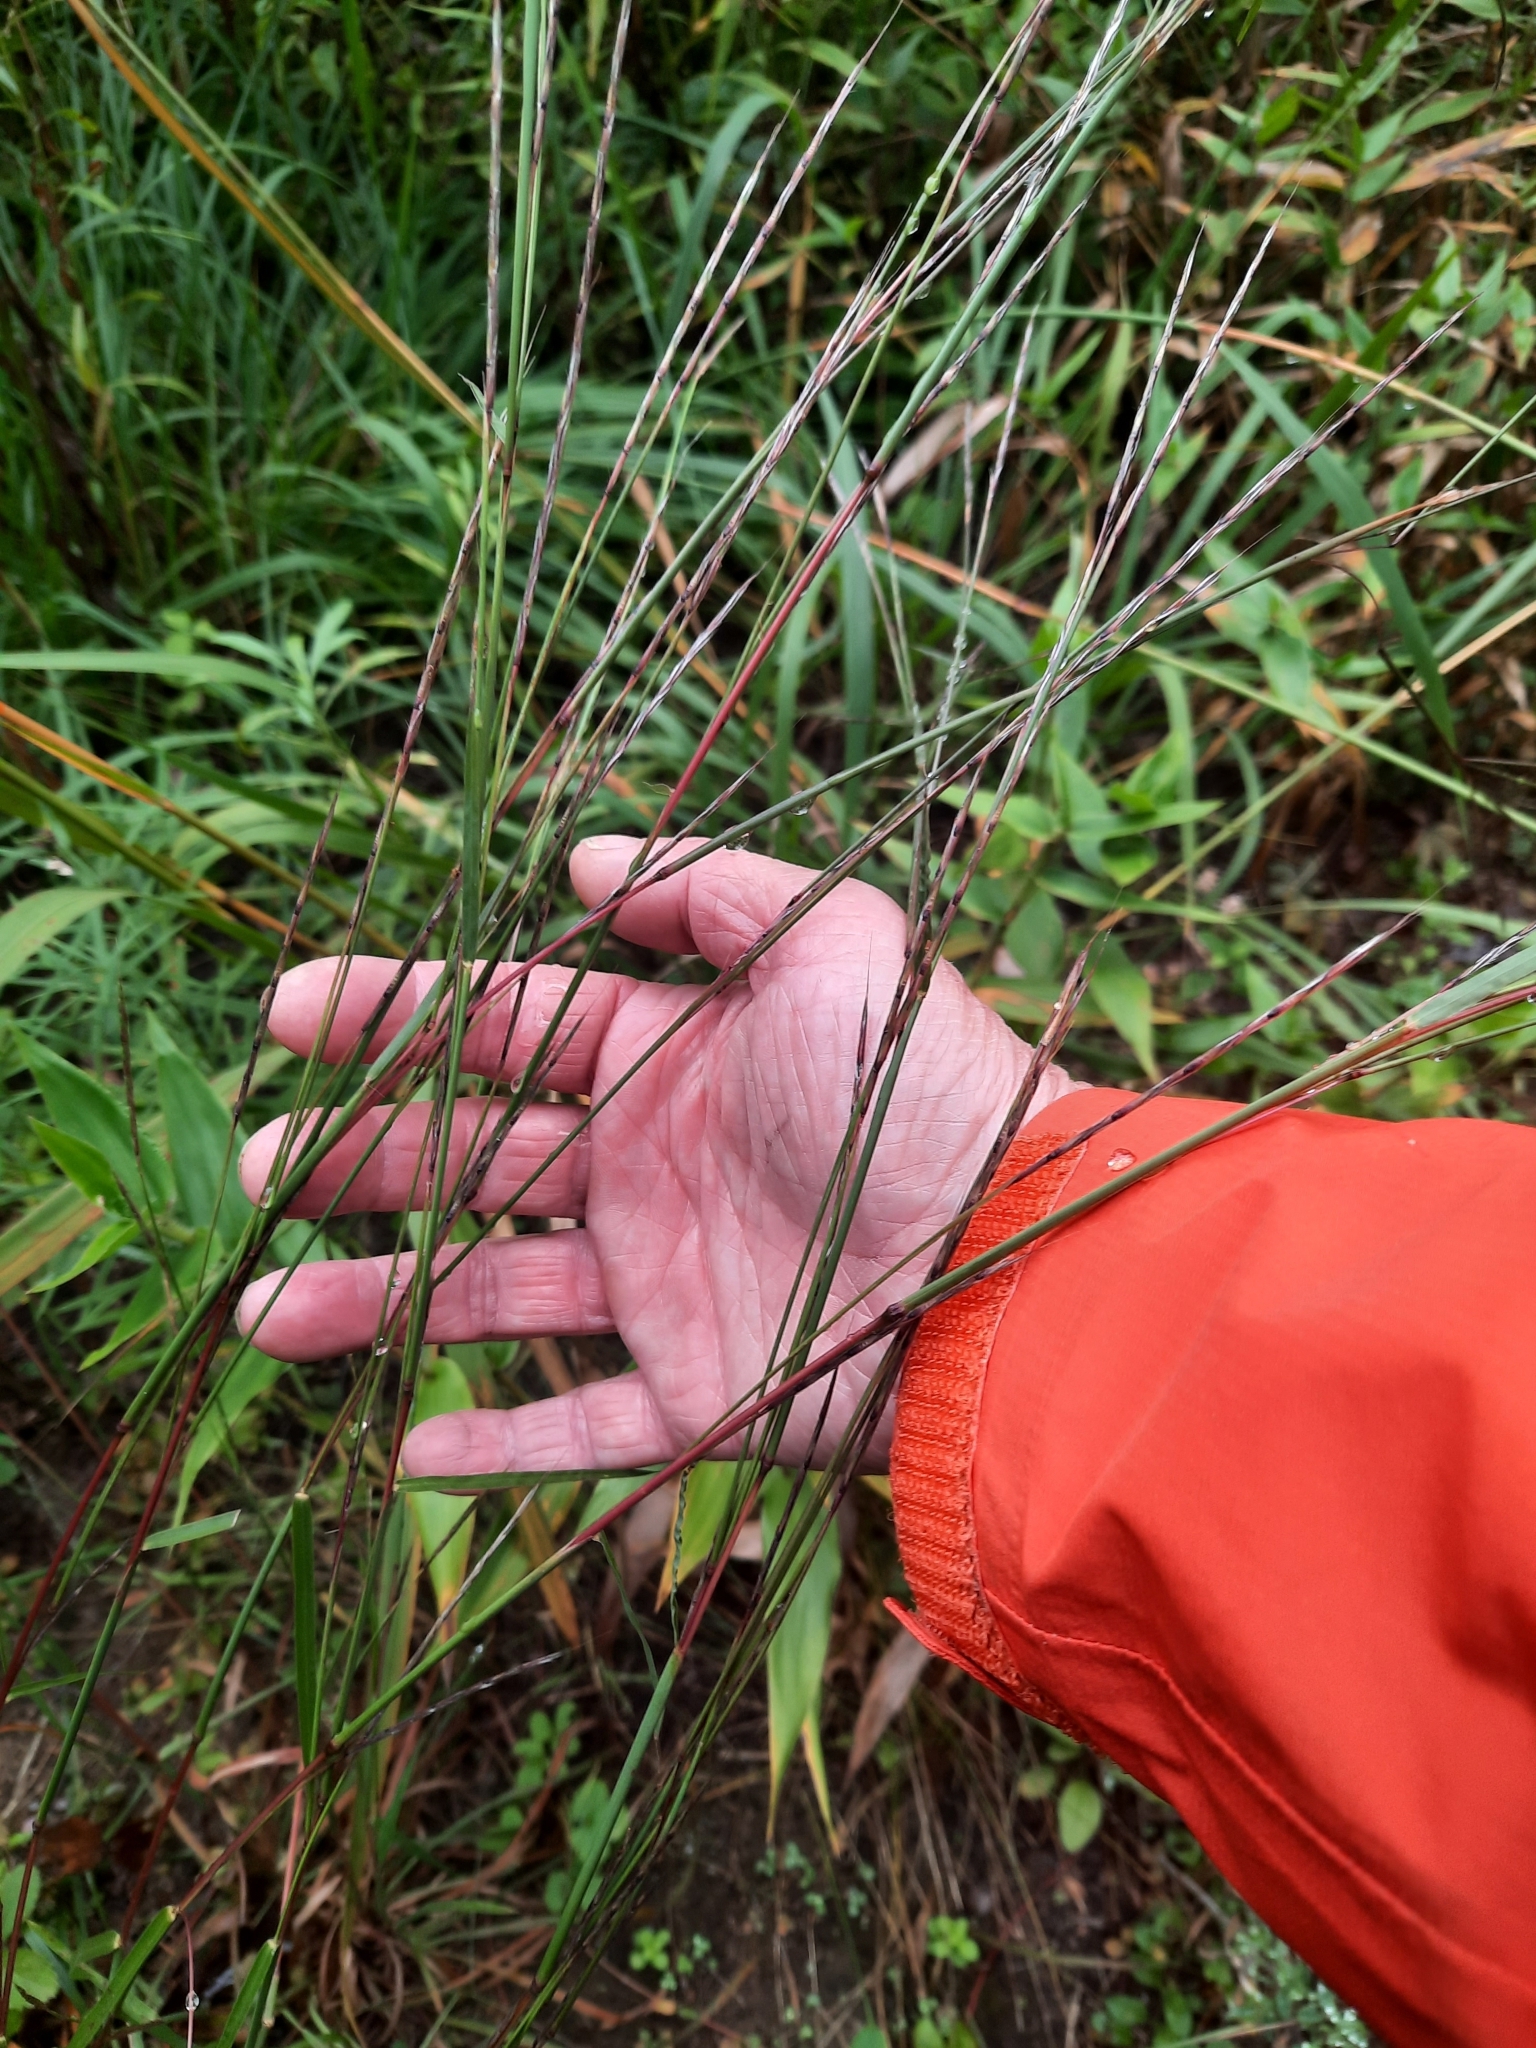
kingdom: Plantae
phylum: Tracheophyta
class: Liliopsida
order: Poales
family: Poaceae
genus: Schizachyrium
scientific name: Schizachyrium scoparium
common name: Little bluestem
